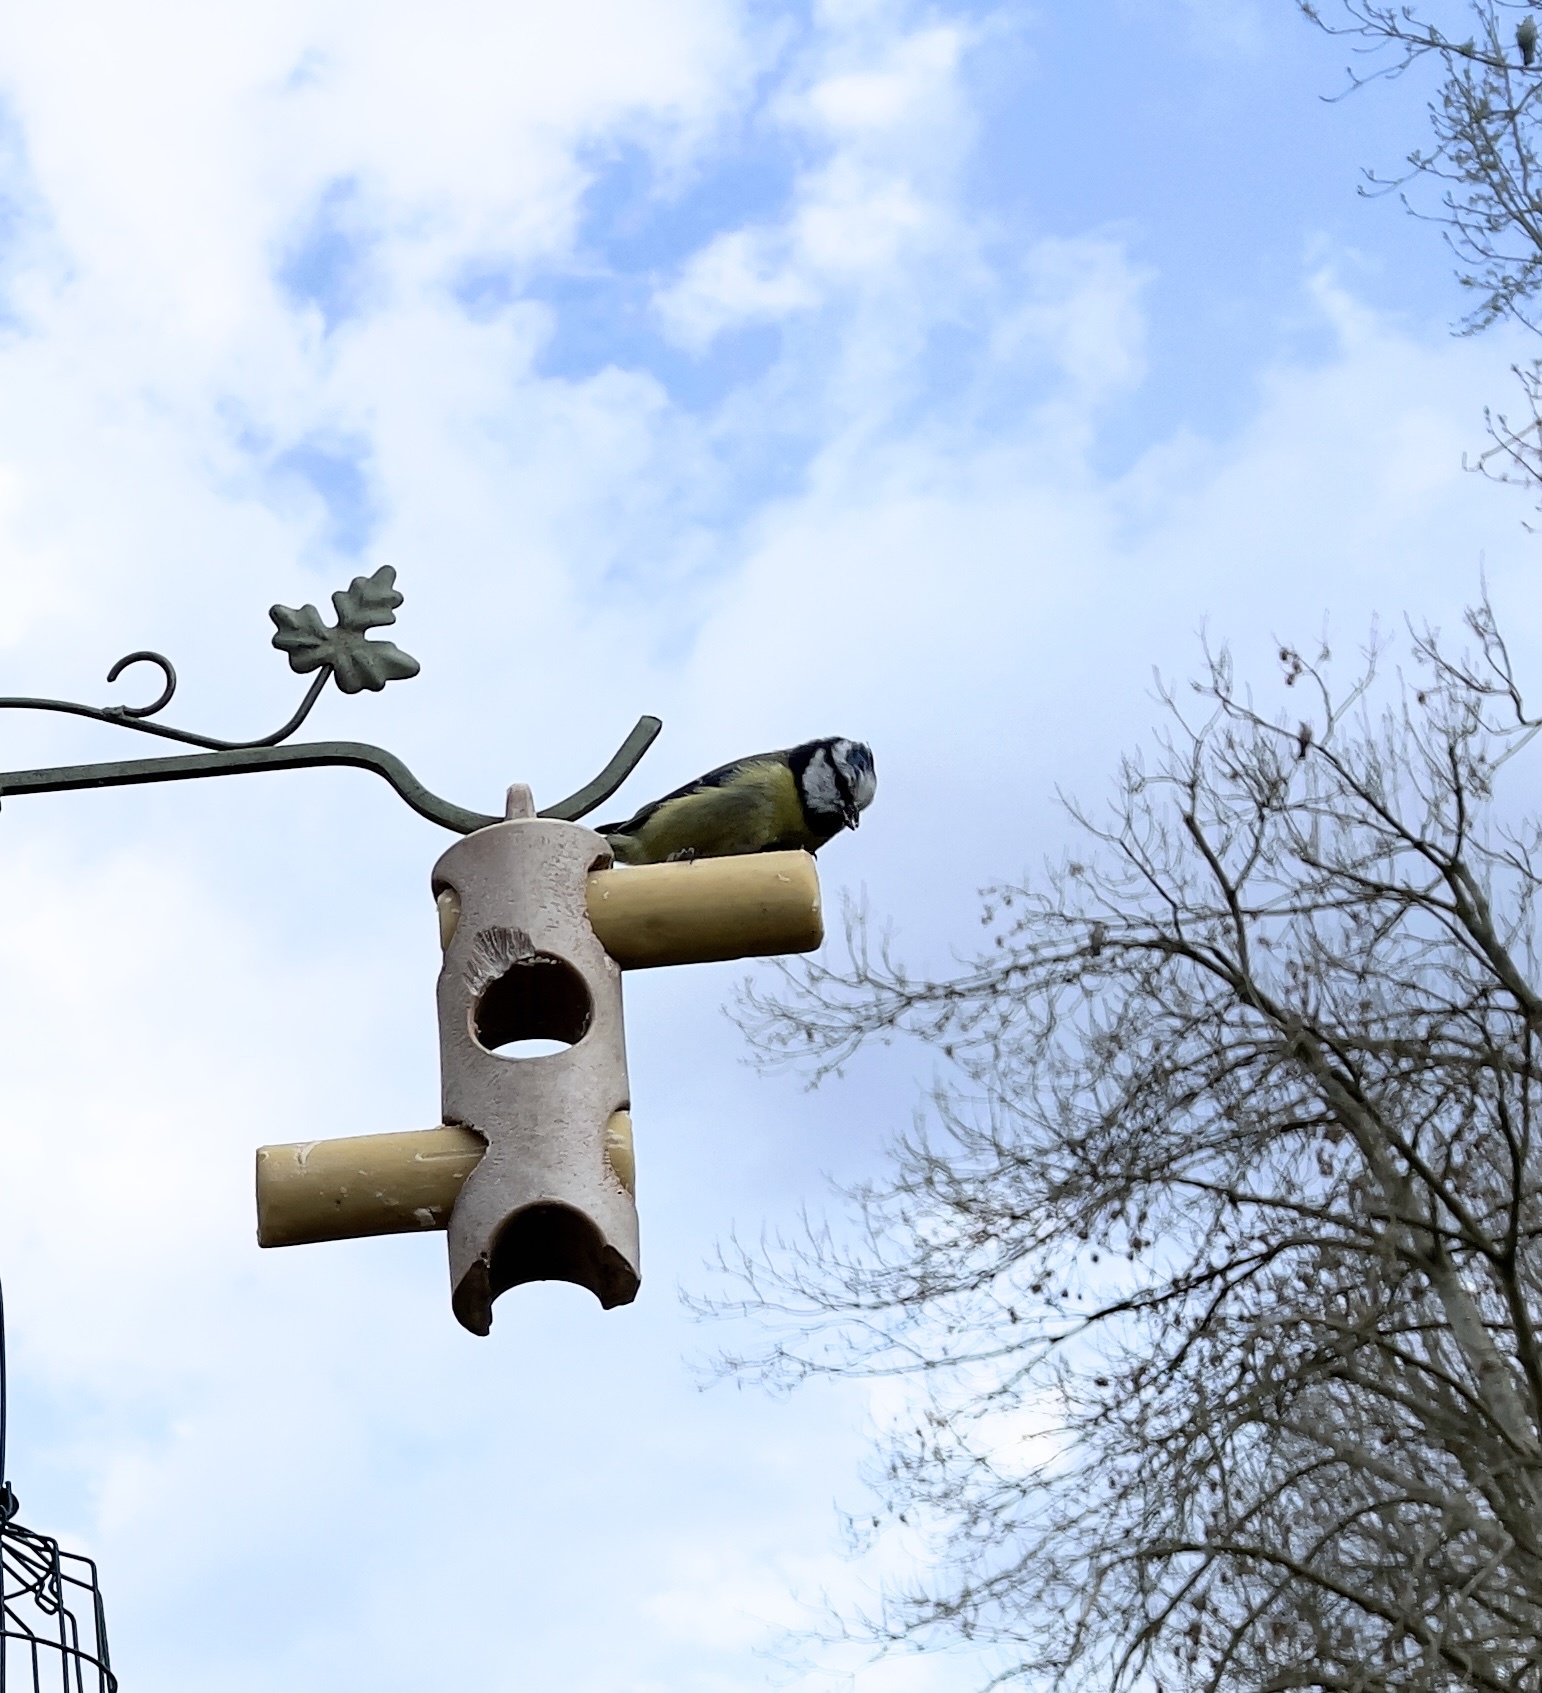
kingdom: Animalia
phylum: Chordata
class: Aves
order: Passeriformes
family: Paridae
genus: Cyanistes
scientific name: Cyanistes caeruleus
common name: Eurasian blue tit
